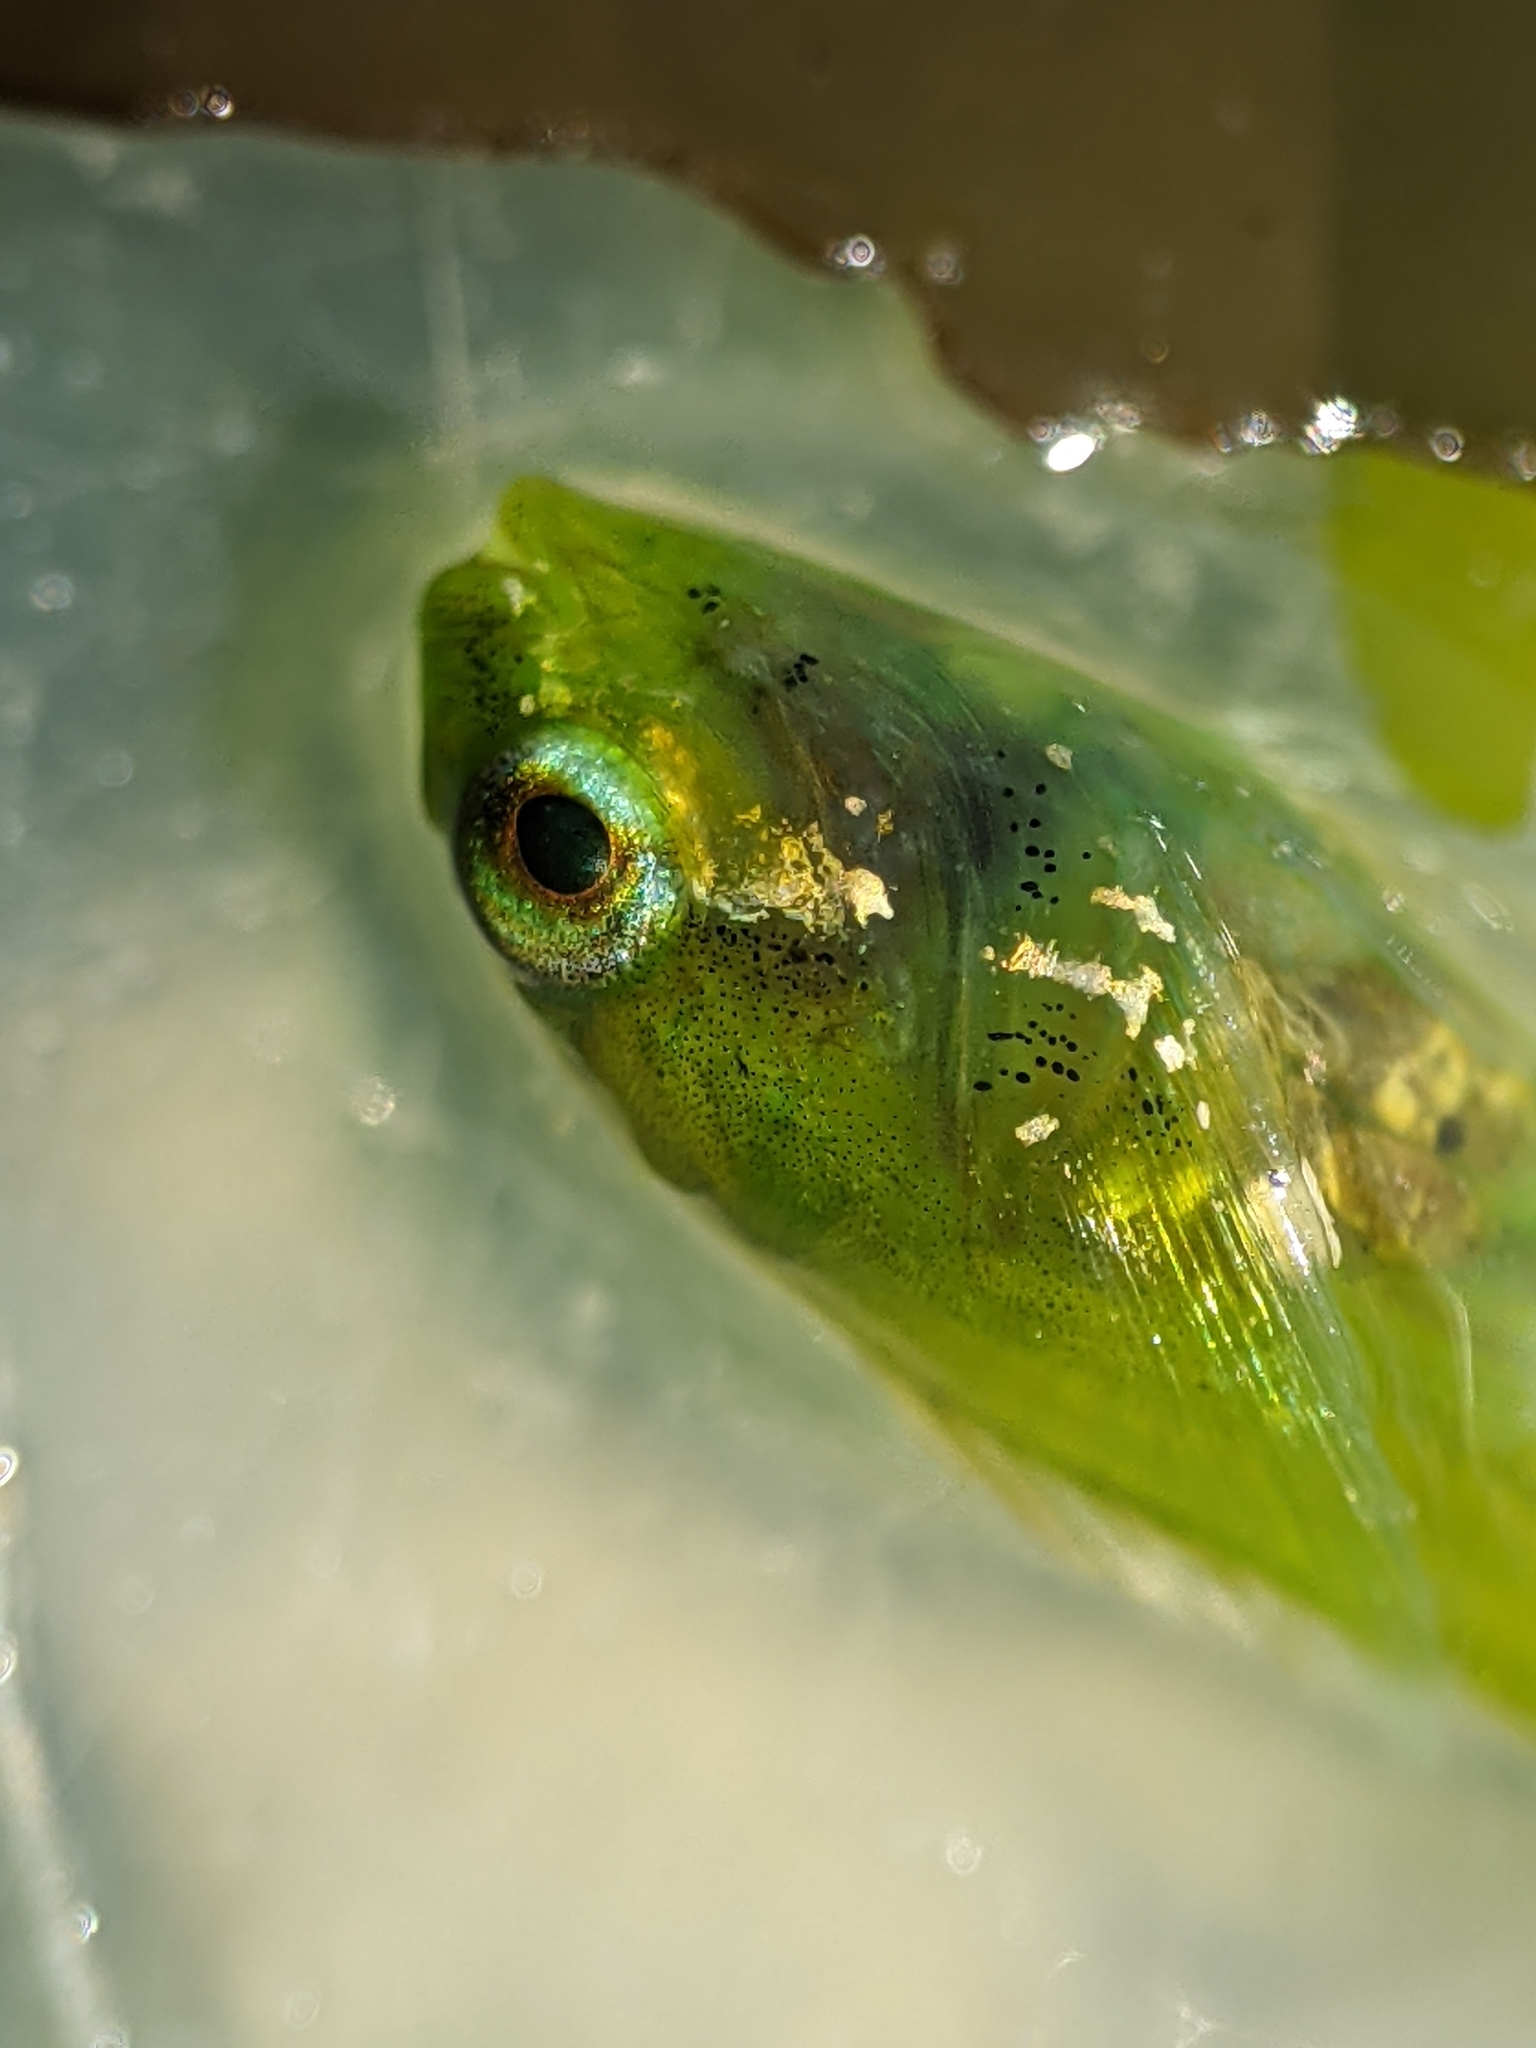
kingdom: Animalia
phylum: Chordata
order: Scorpaeniformes
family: Cottidae
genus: Oligocottus
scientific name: Oligocottus snyderi
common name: Fluffy sculpin
